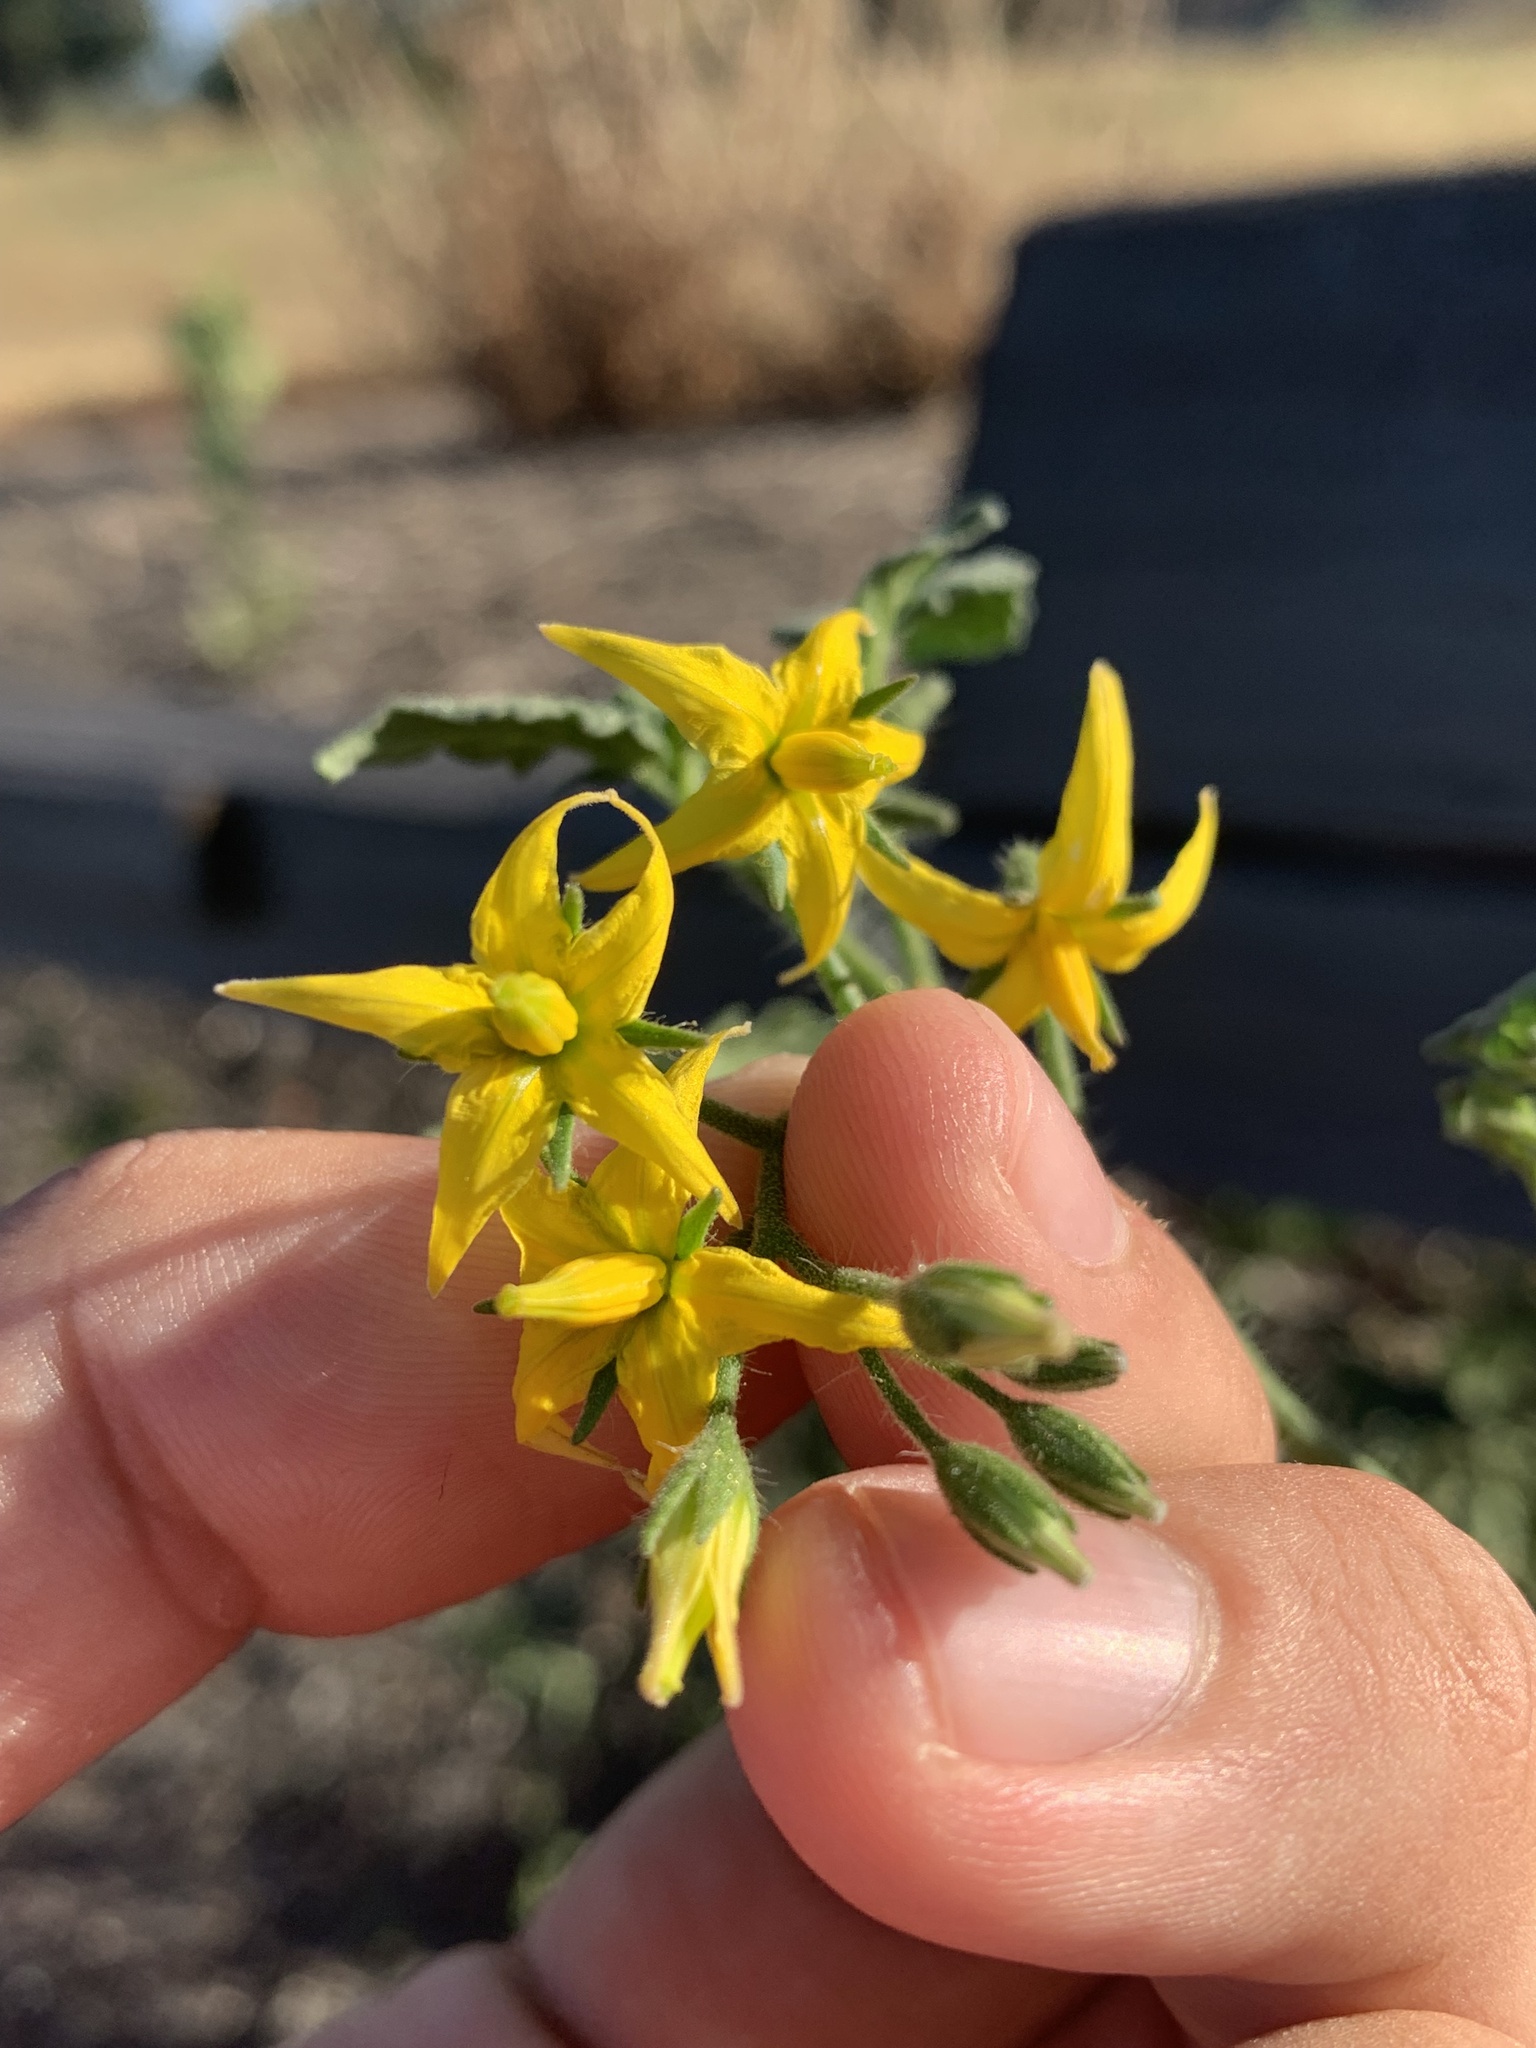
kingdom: Plantae
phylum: Tracheophyta
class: Magnoliopsida
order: Solanales
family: Solanaceae
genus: Solanum
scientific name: Solanum lycopersicum
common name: Garden tomato
